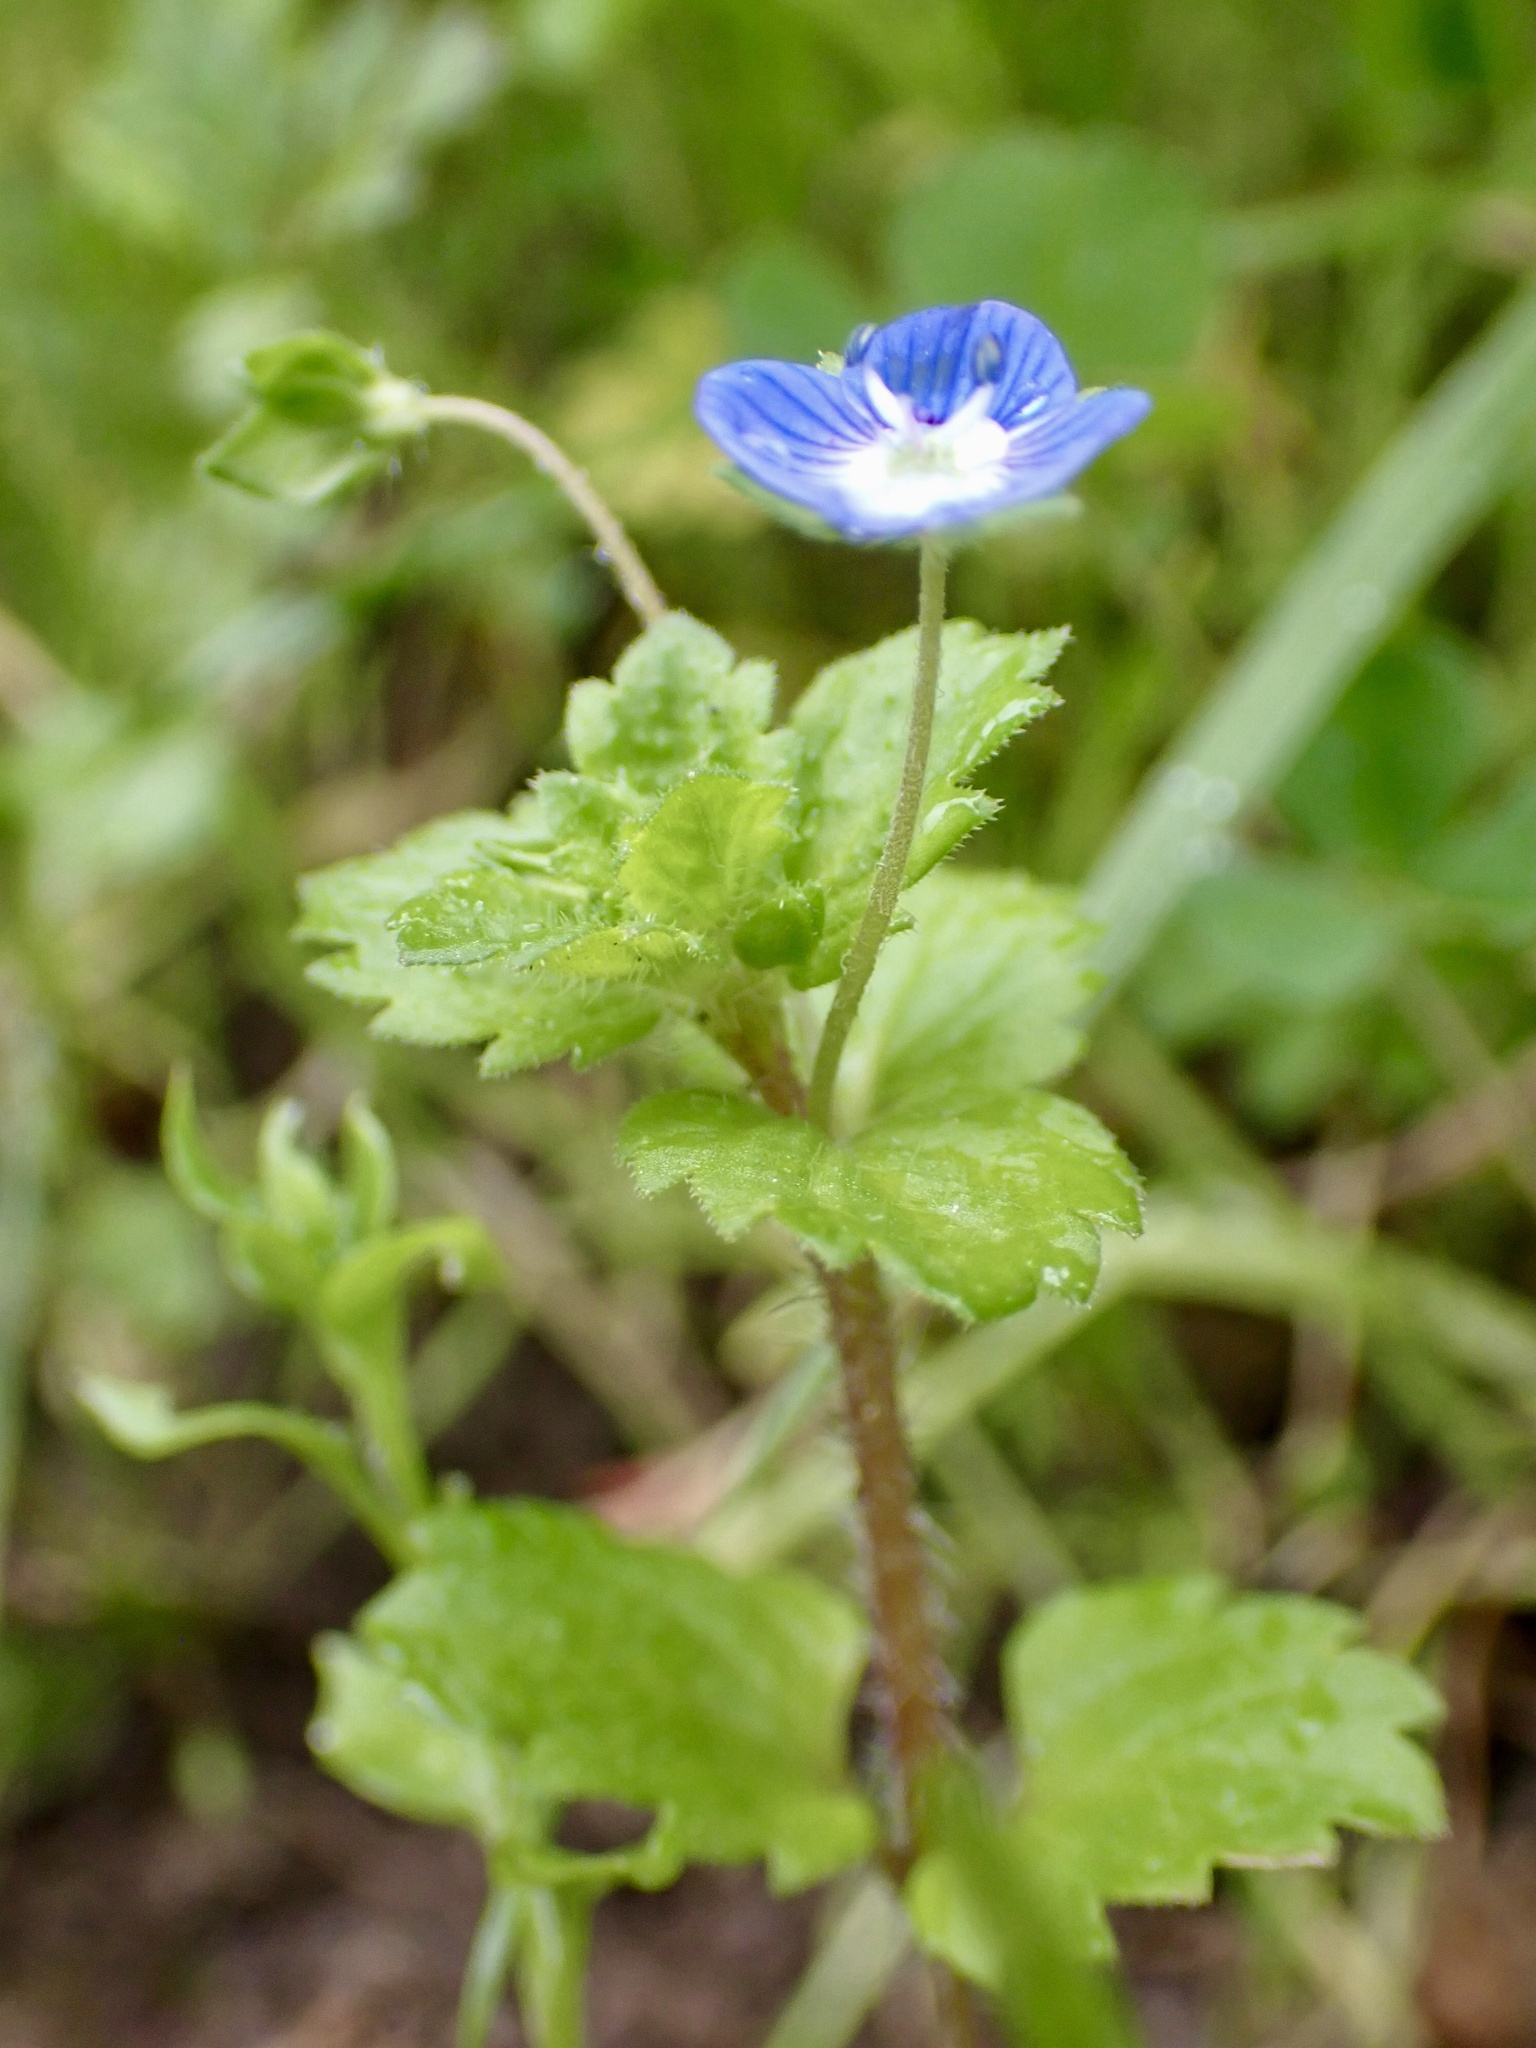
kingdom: Plantae
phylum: Tracheophyta
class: Magnoliopsida
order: Lamiales
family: Plantaginaceae
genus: Veronica
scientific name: Veronica persica
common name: Common field-speedwell
